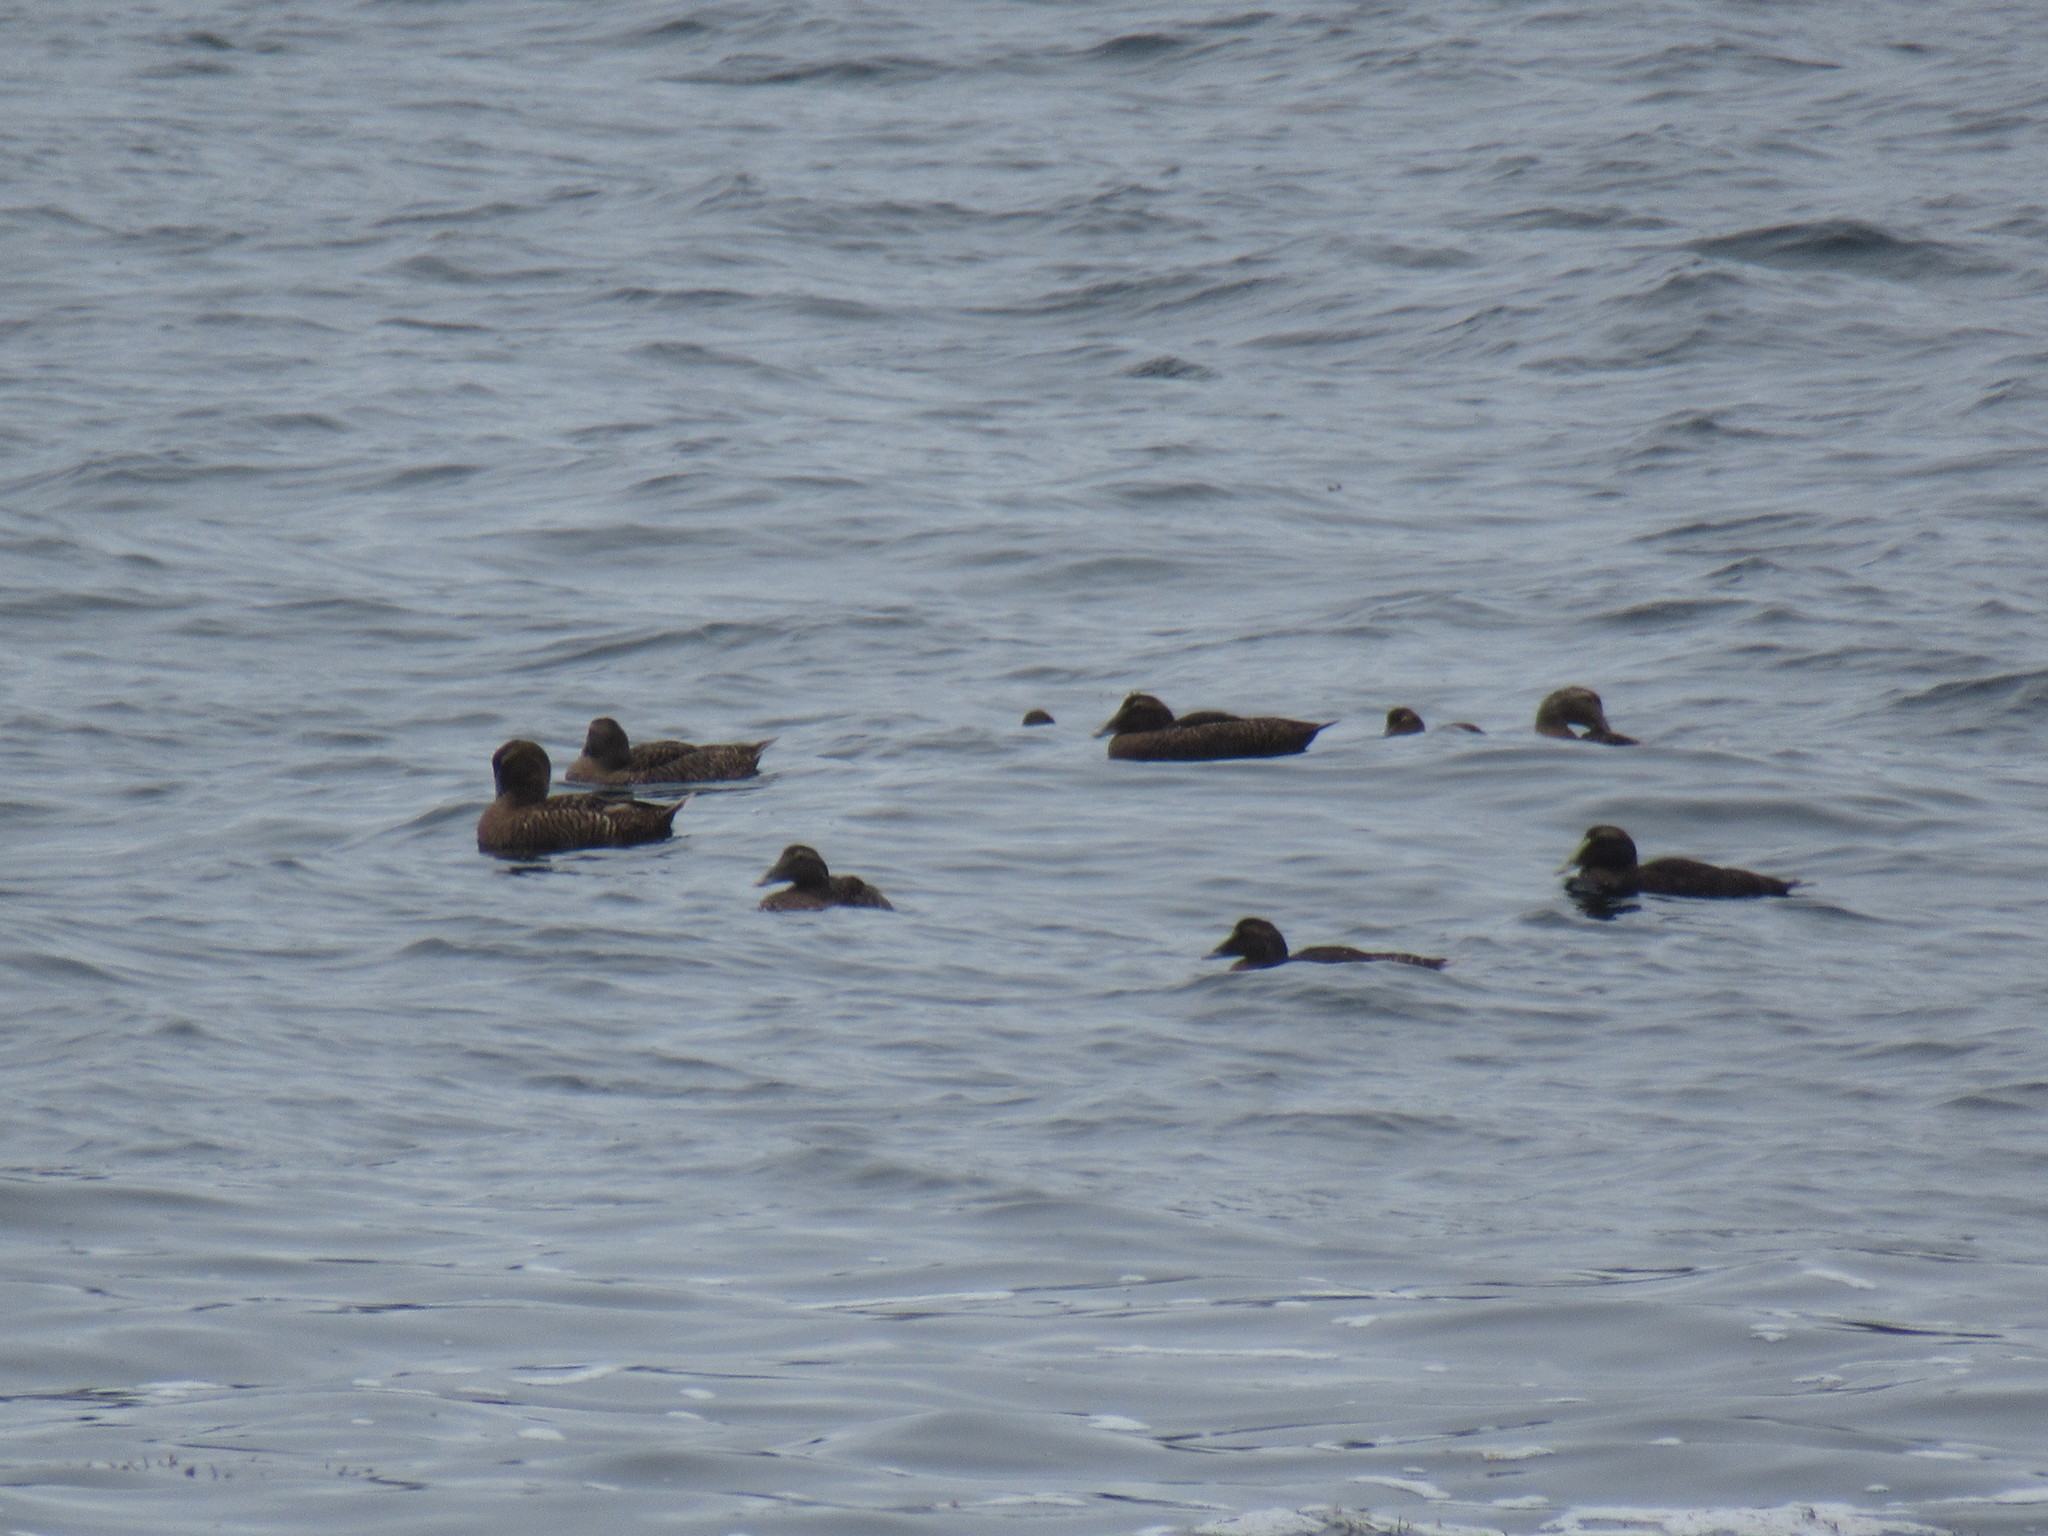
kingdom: Animalia
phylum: Chordata
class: Aves
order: Anseriformes
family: Anatidae
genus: Somateria
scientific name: Somateria mollissima
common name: Common eider
